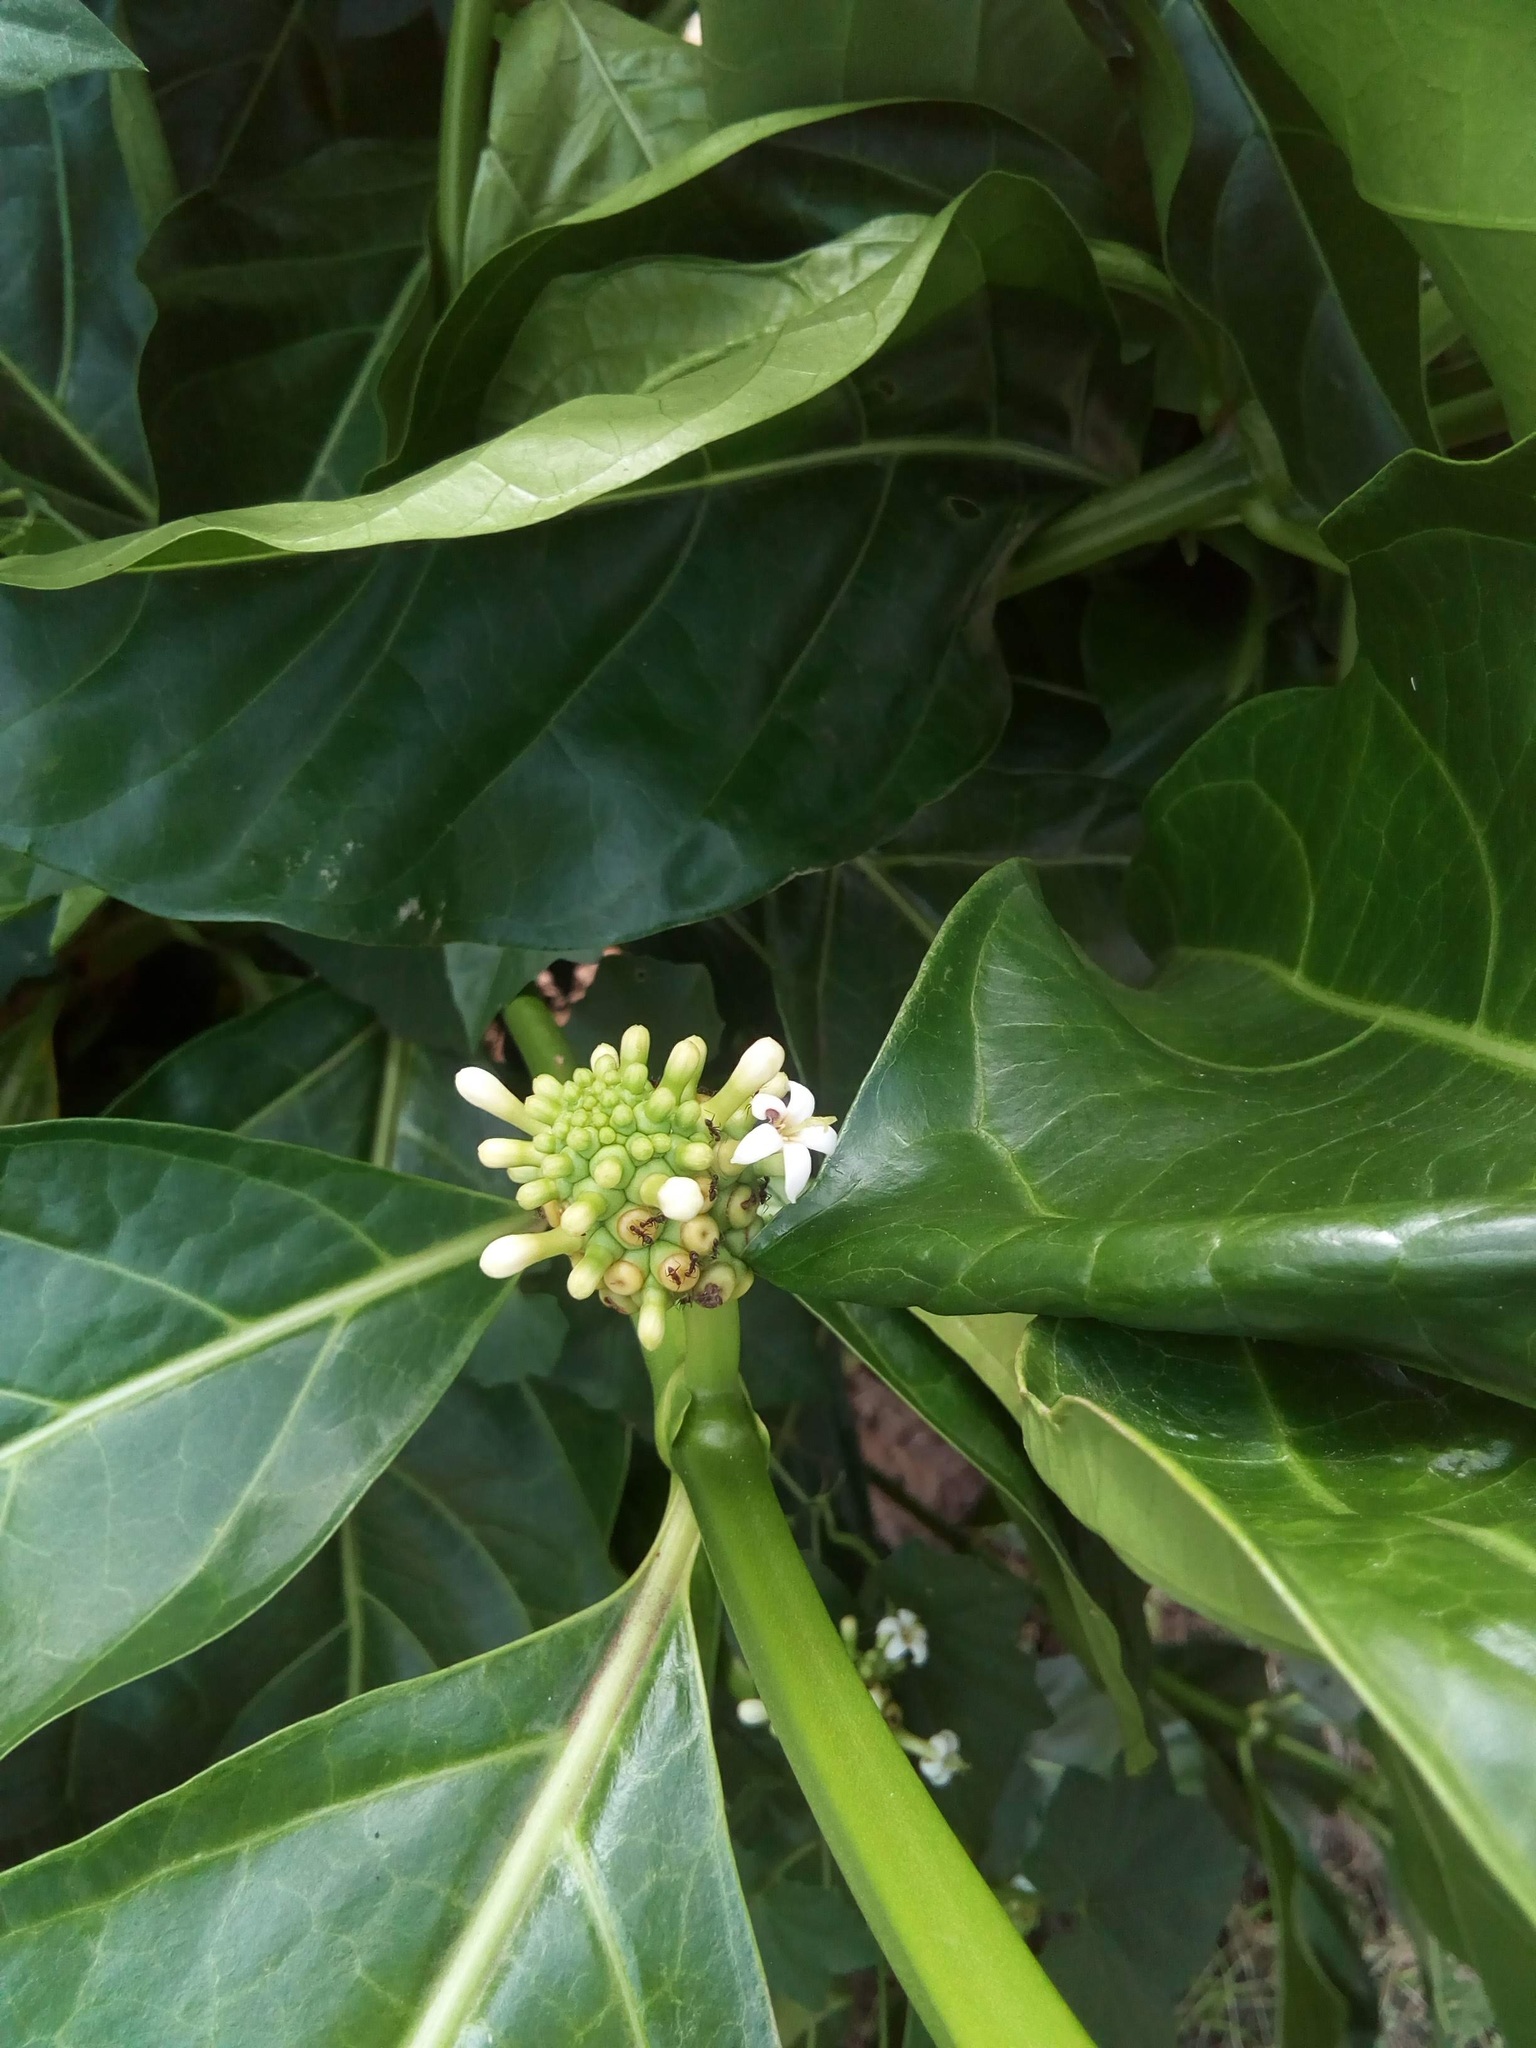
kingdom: Plantae
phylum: Tracheophyta
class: Magnoliopsida
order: Gentianales
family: Rubiaceae
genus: Morinda
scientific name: Morinda citrifolia
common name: Indian-mulberry
